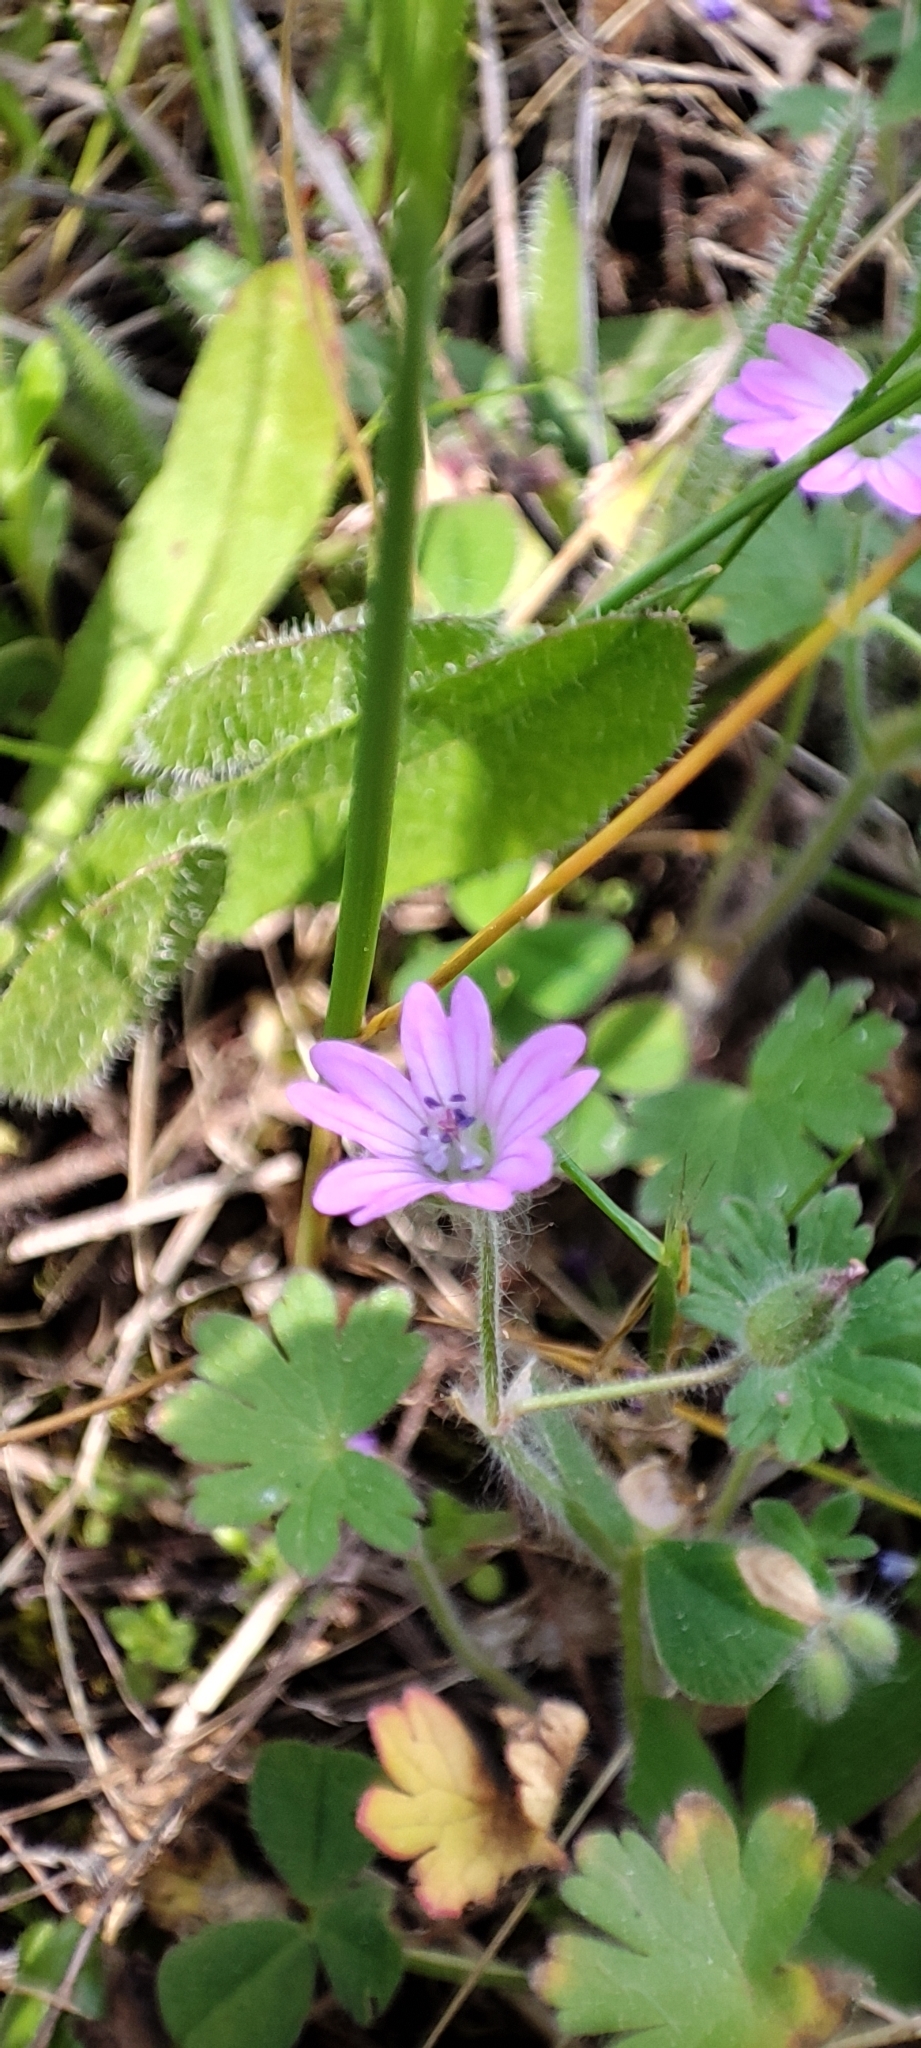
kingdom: Plantae
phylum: Tracheophyta
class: Magnoliopsida
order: Geraniales
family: Geraniaceae
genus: Geranium
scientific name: Geranium molle
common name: Dove's-foot crane's-bill
